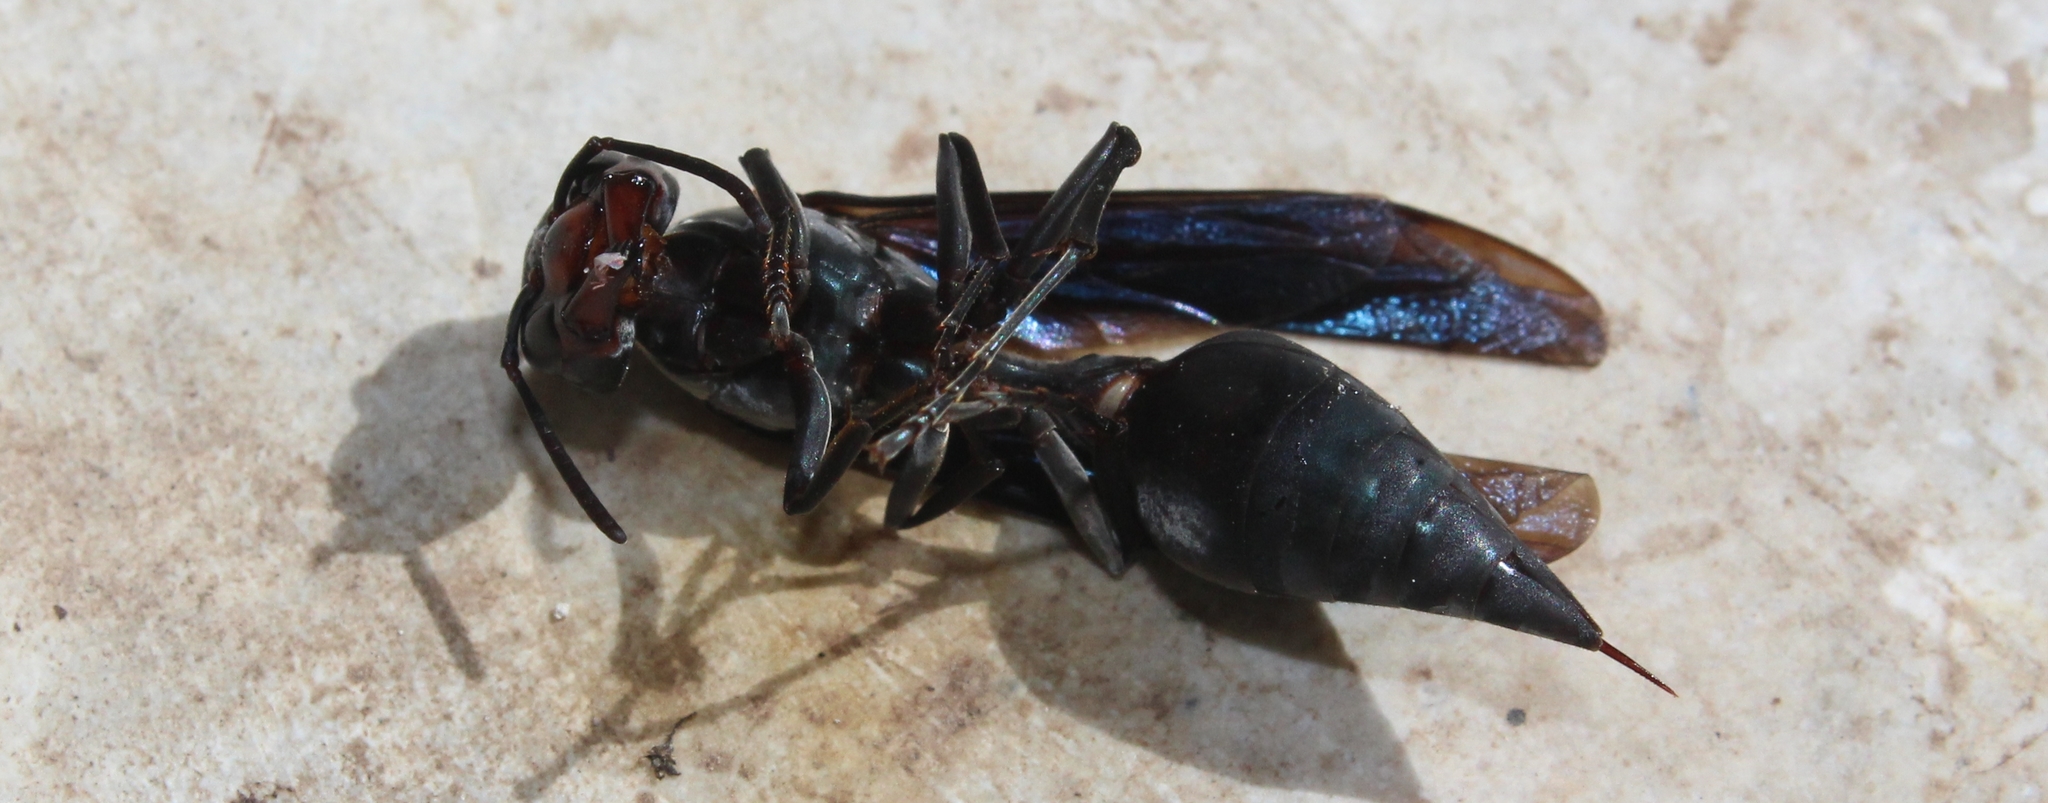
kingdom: Animalia
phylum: Arthropoda
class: Insecta
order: Hymenoptera
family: Vespidae
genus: Synoeca
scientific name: Synoeca septentrionalis
